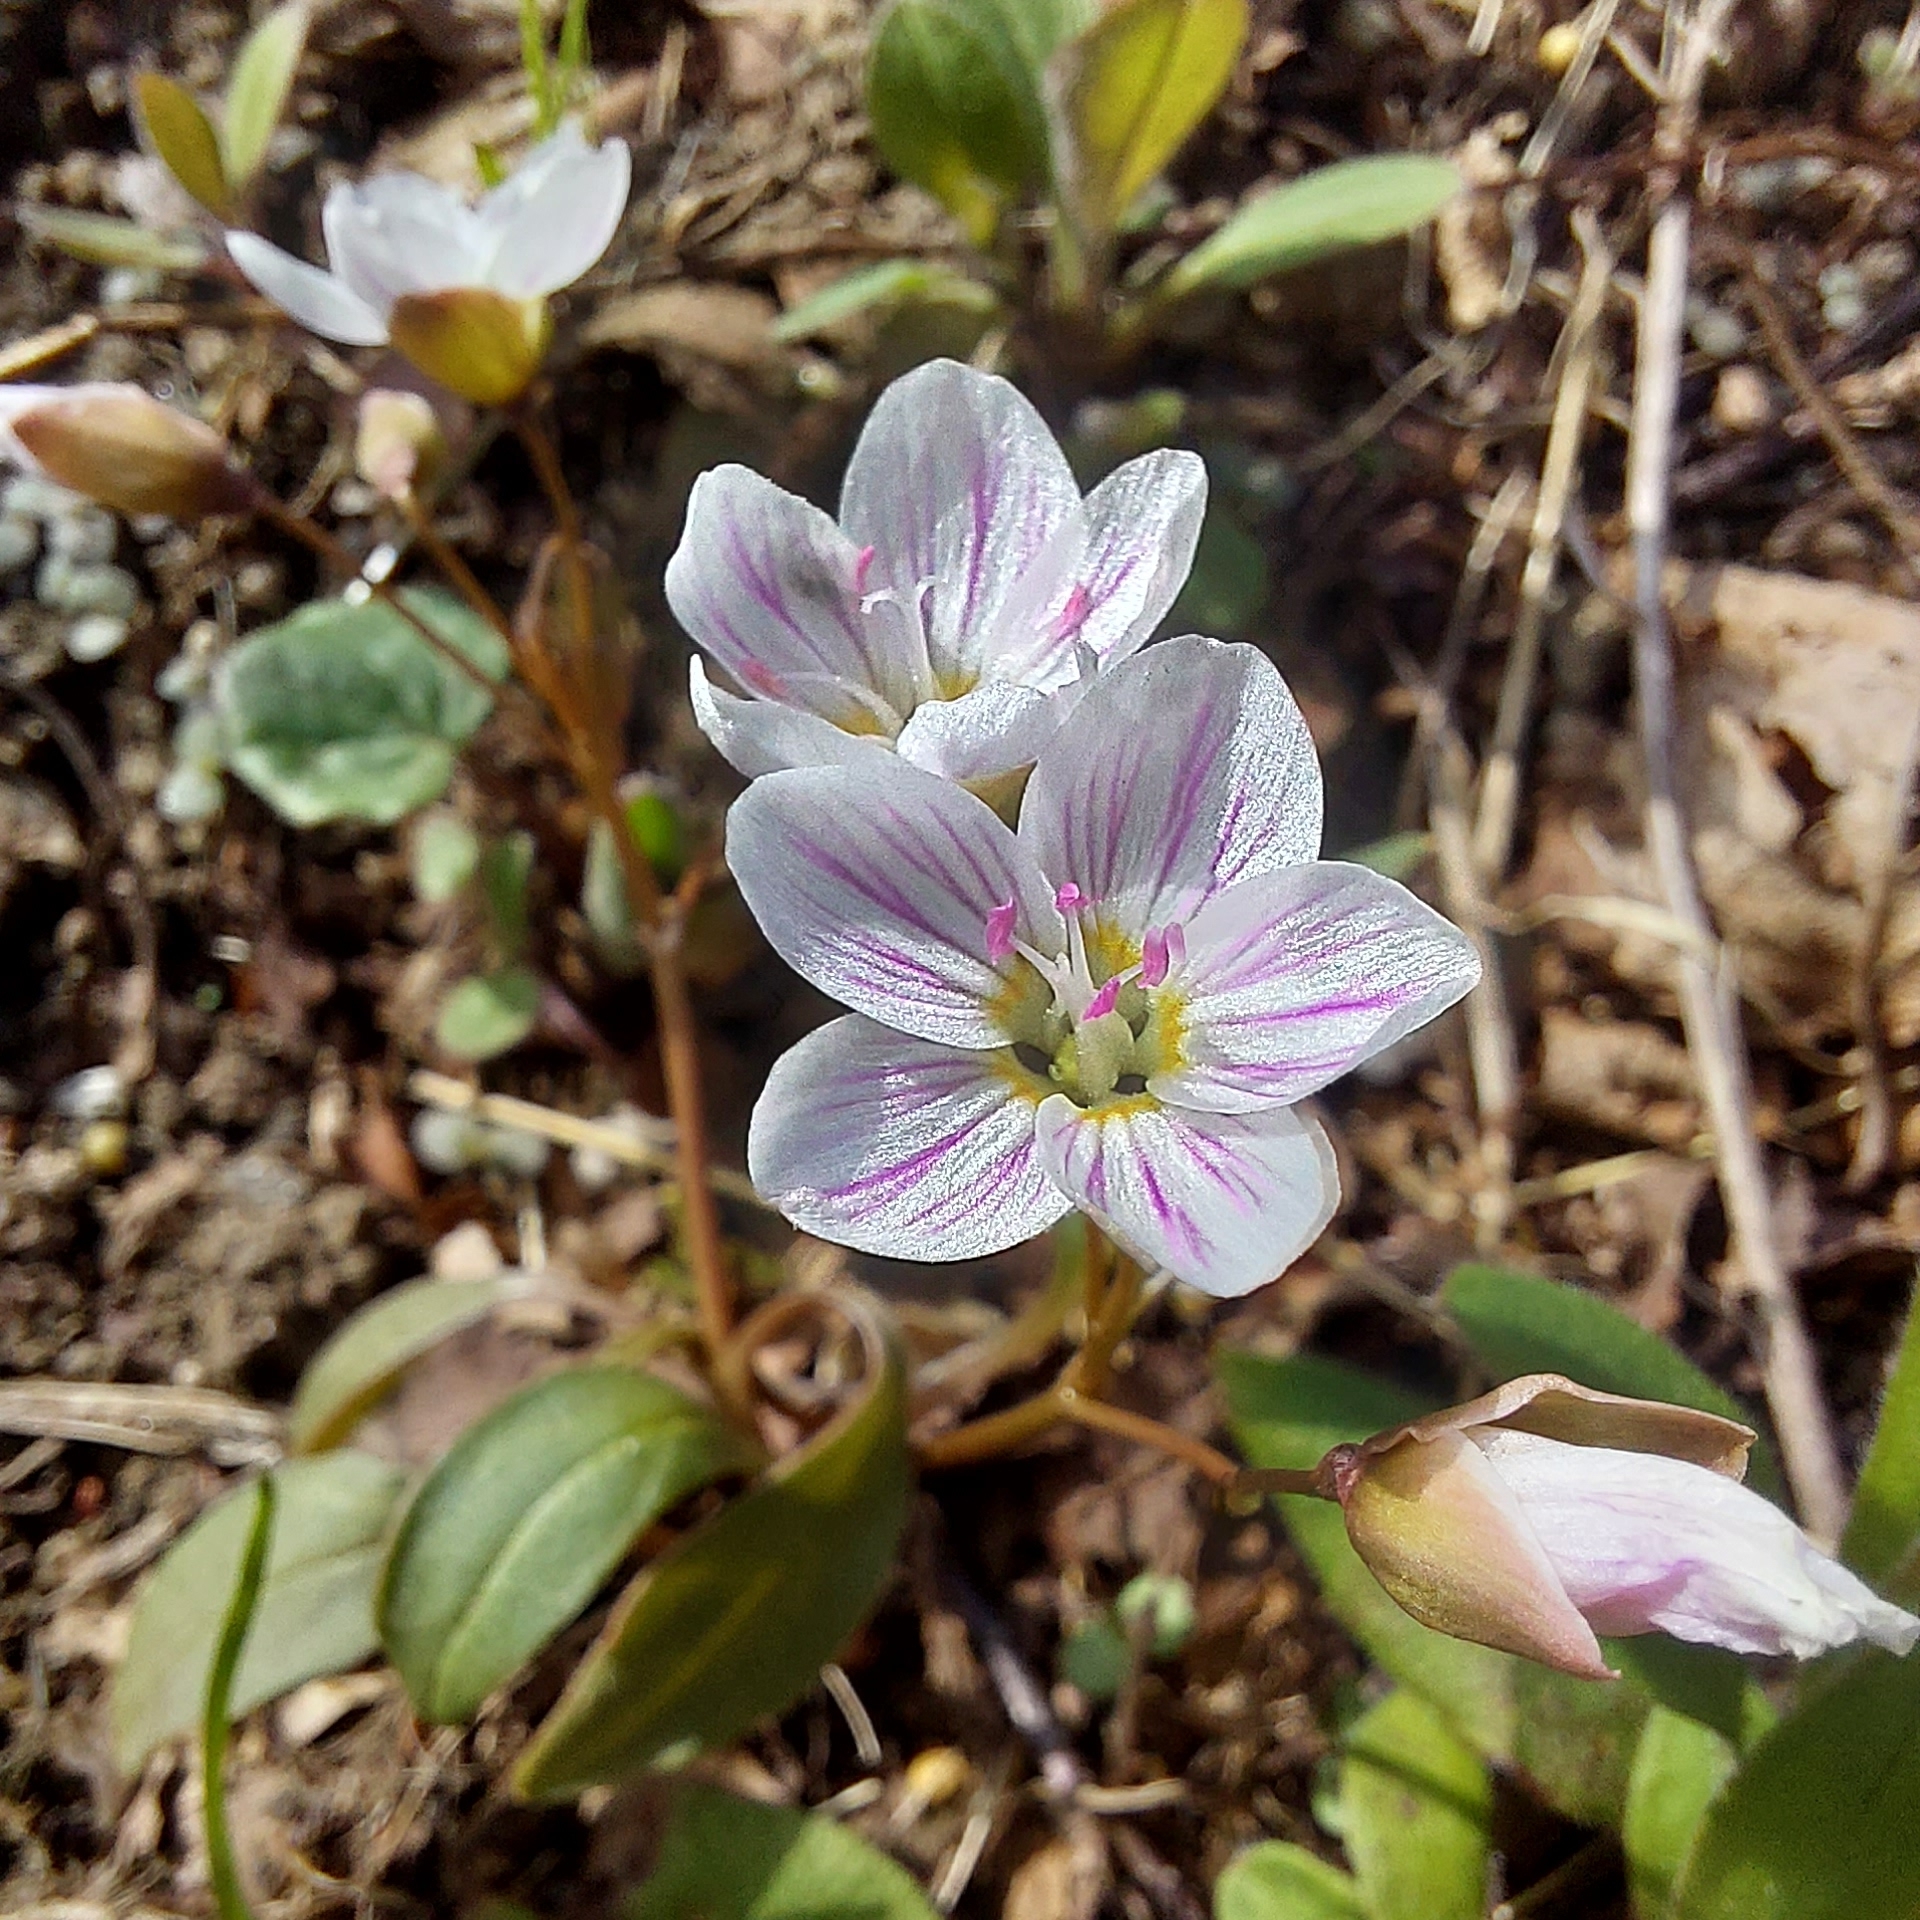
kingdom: Plantae
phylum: Tracheophyta
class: Magnoliopsida
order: Caryophyllales
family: Montiaceae
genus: Claytonia
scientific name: Claytonia caroliniana
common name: Carolina spring beauty
